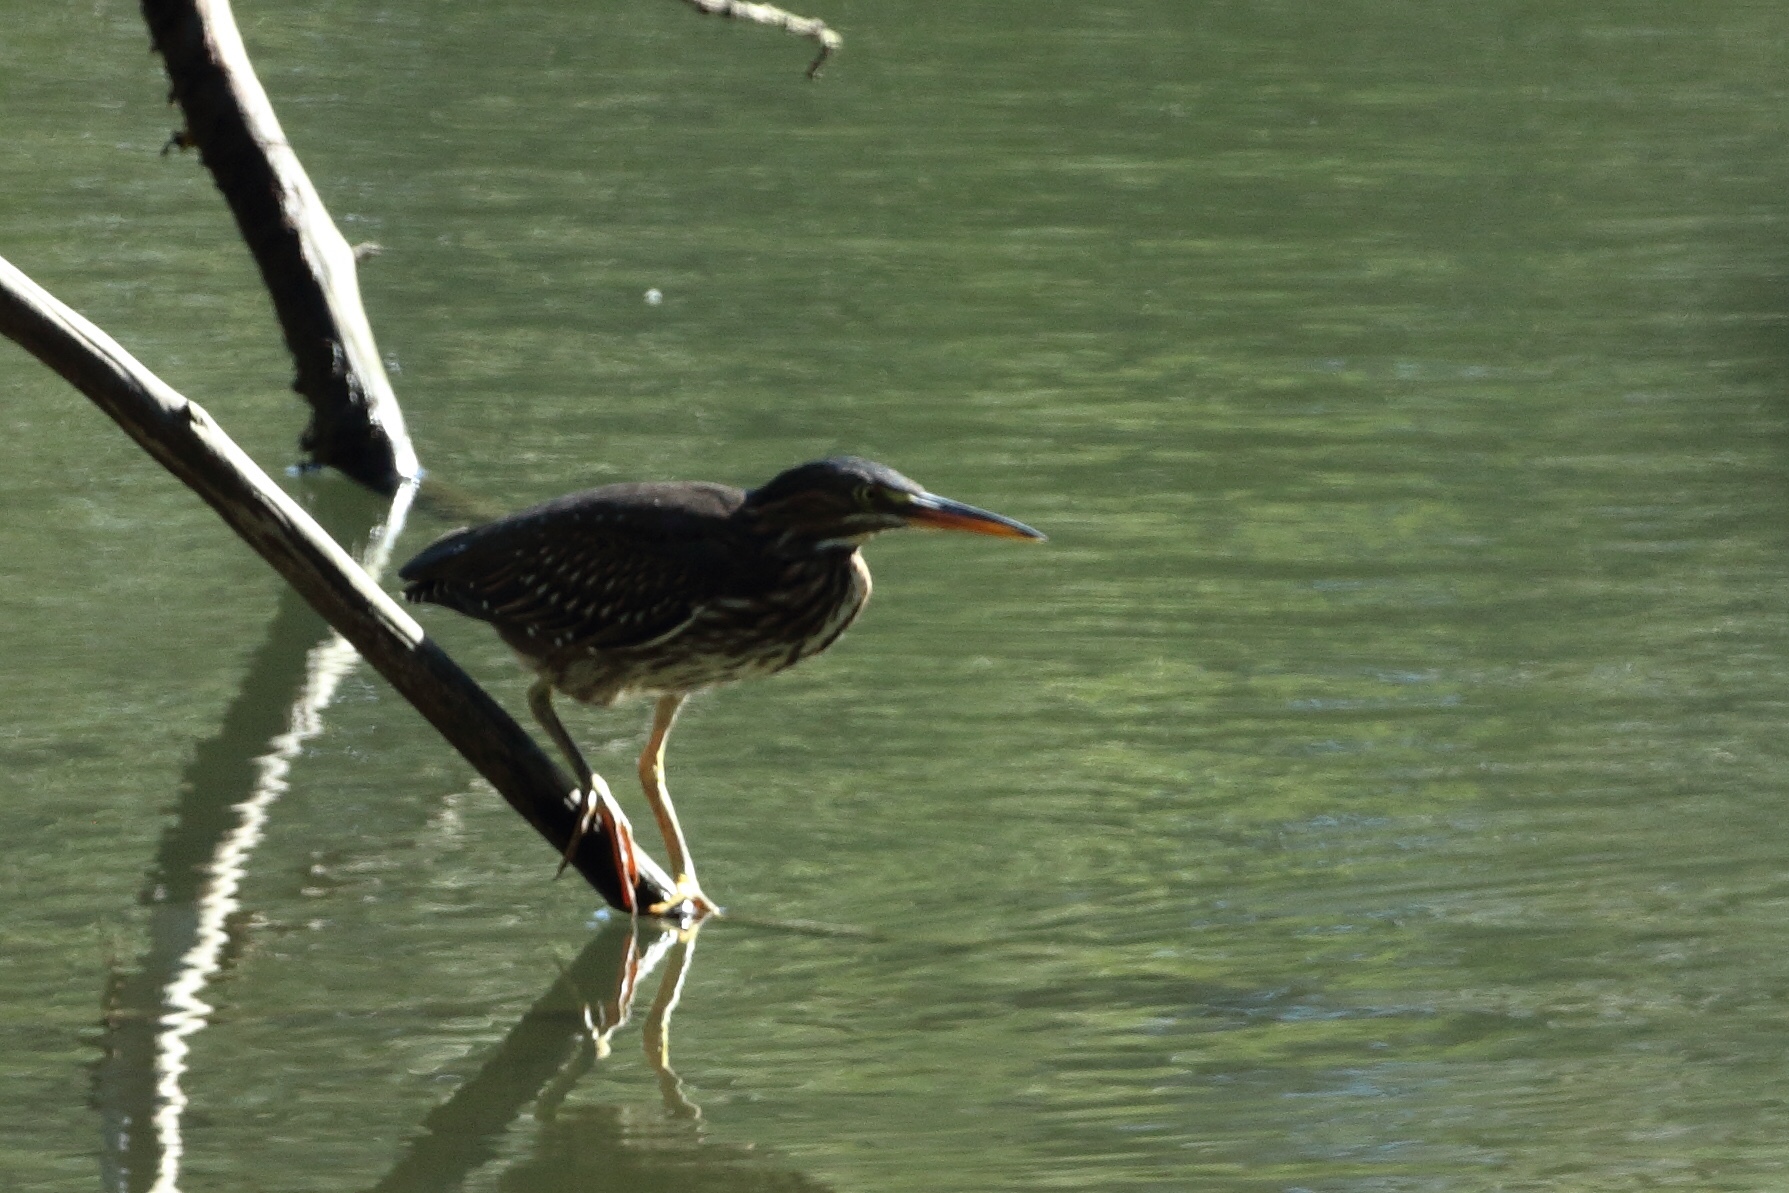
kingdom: Animalia
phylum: Chordata
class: Aves
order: Pelecaniformes
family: Ardeidae
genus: Butorides
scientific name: Butorides virescens
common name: Green heron
